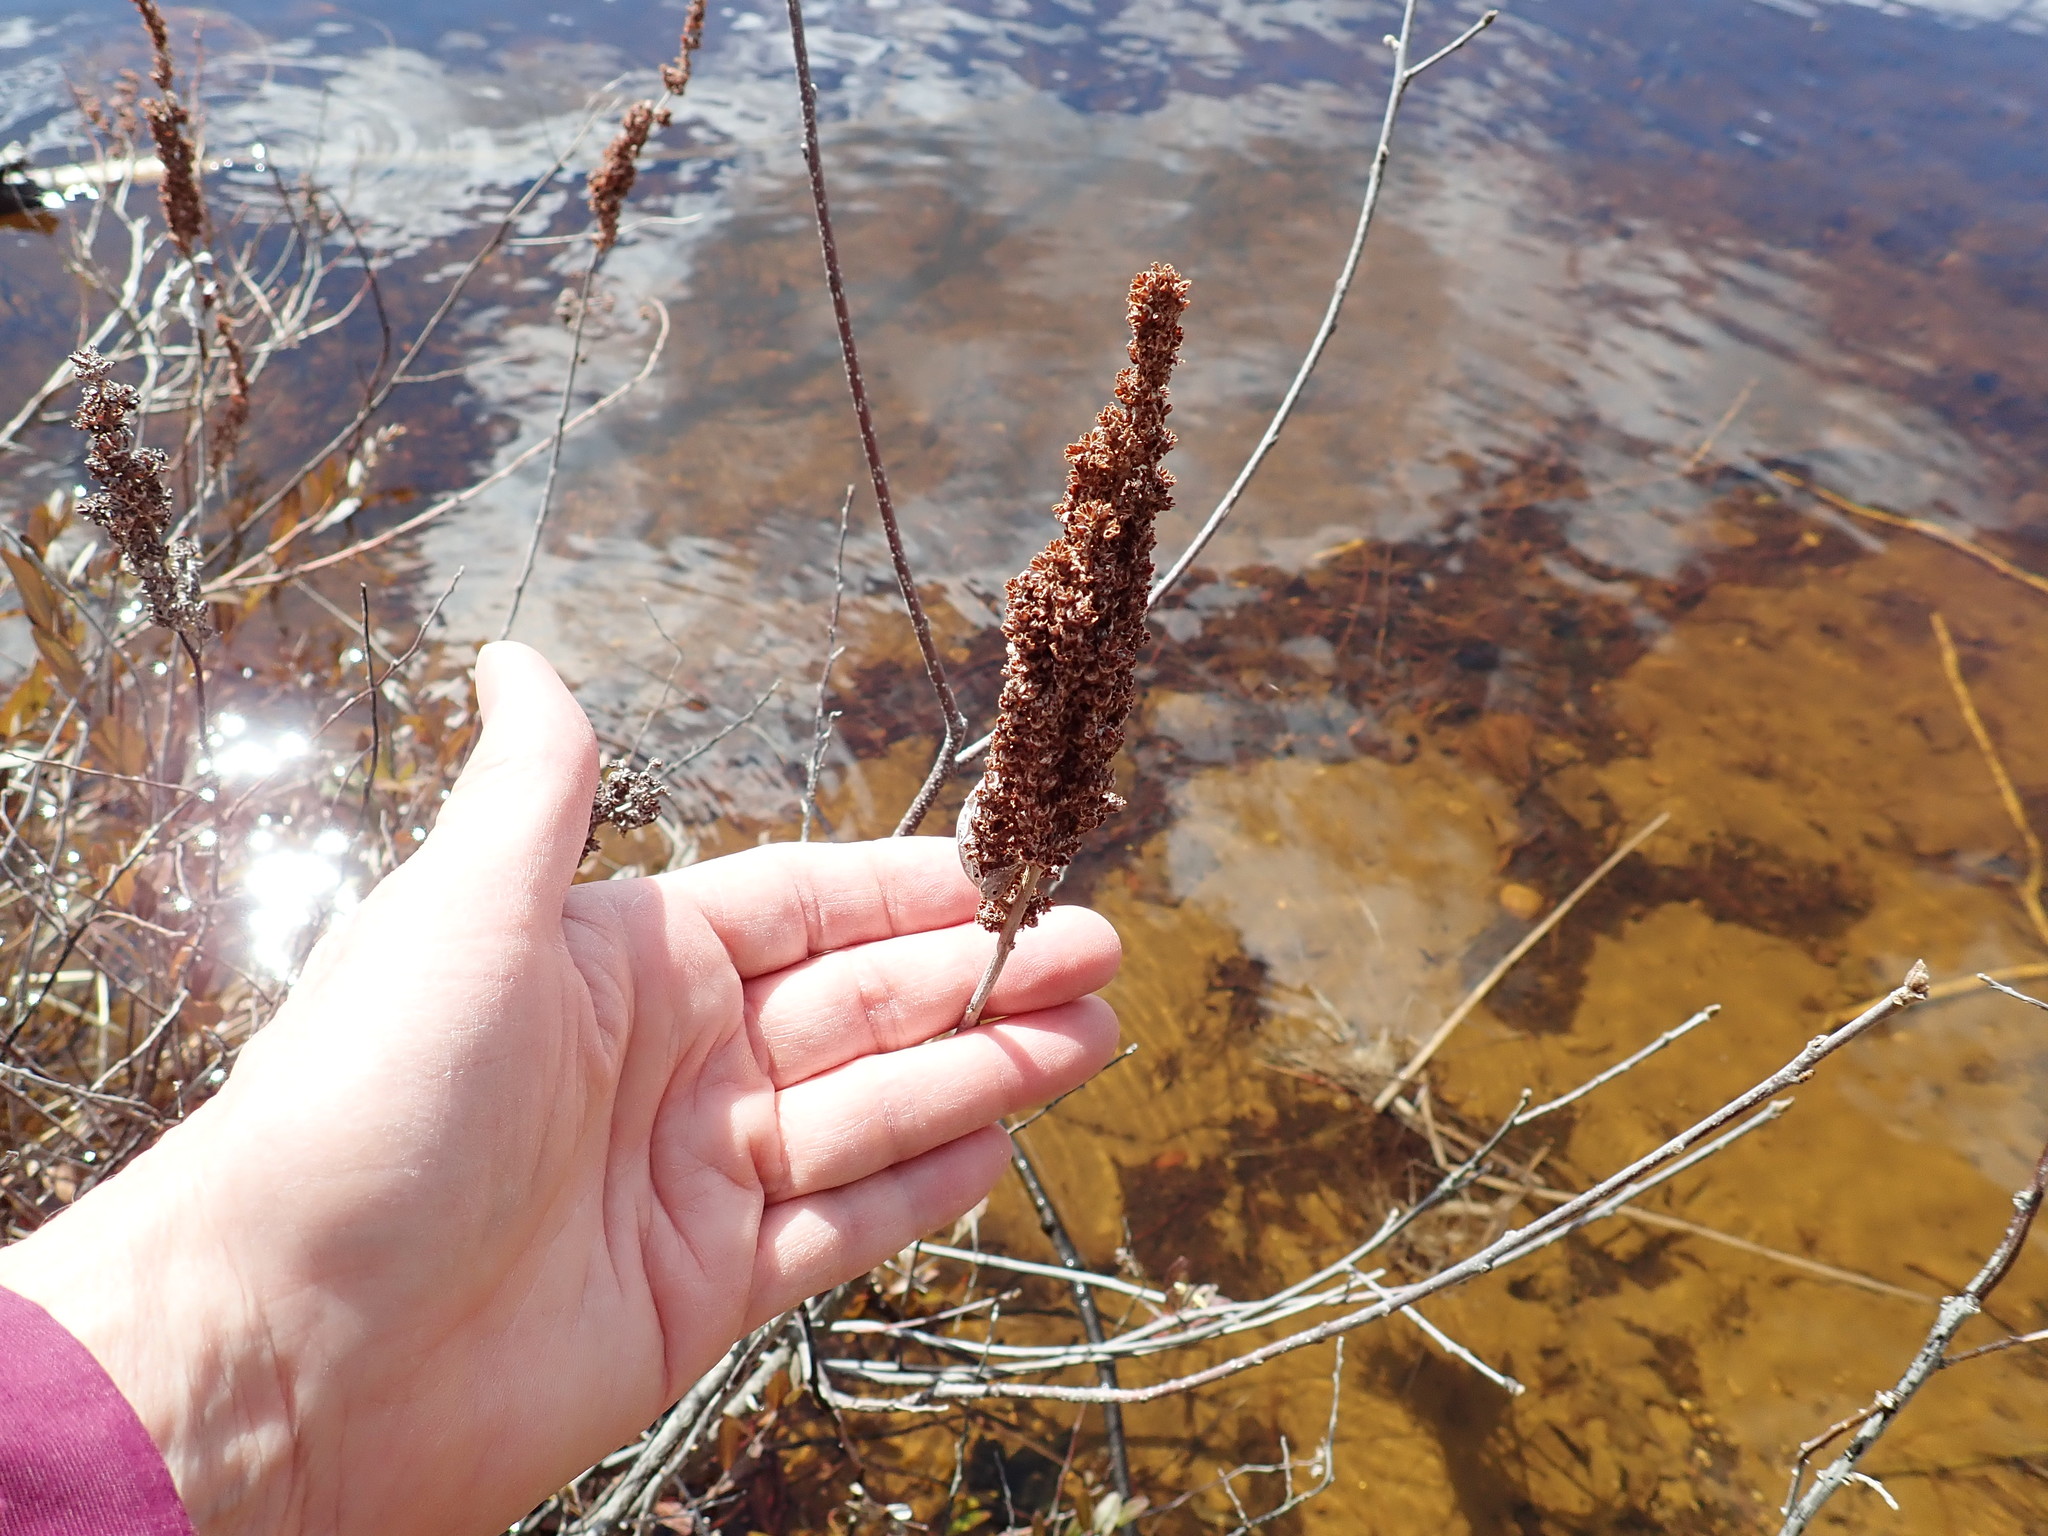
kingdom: Plantae
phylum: Tracheophyta
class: Magnoliopsida
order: Rosales
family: Rosaceae
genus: Spiraea
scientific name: Spiraea tomentosa
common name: Hardhack
